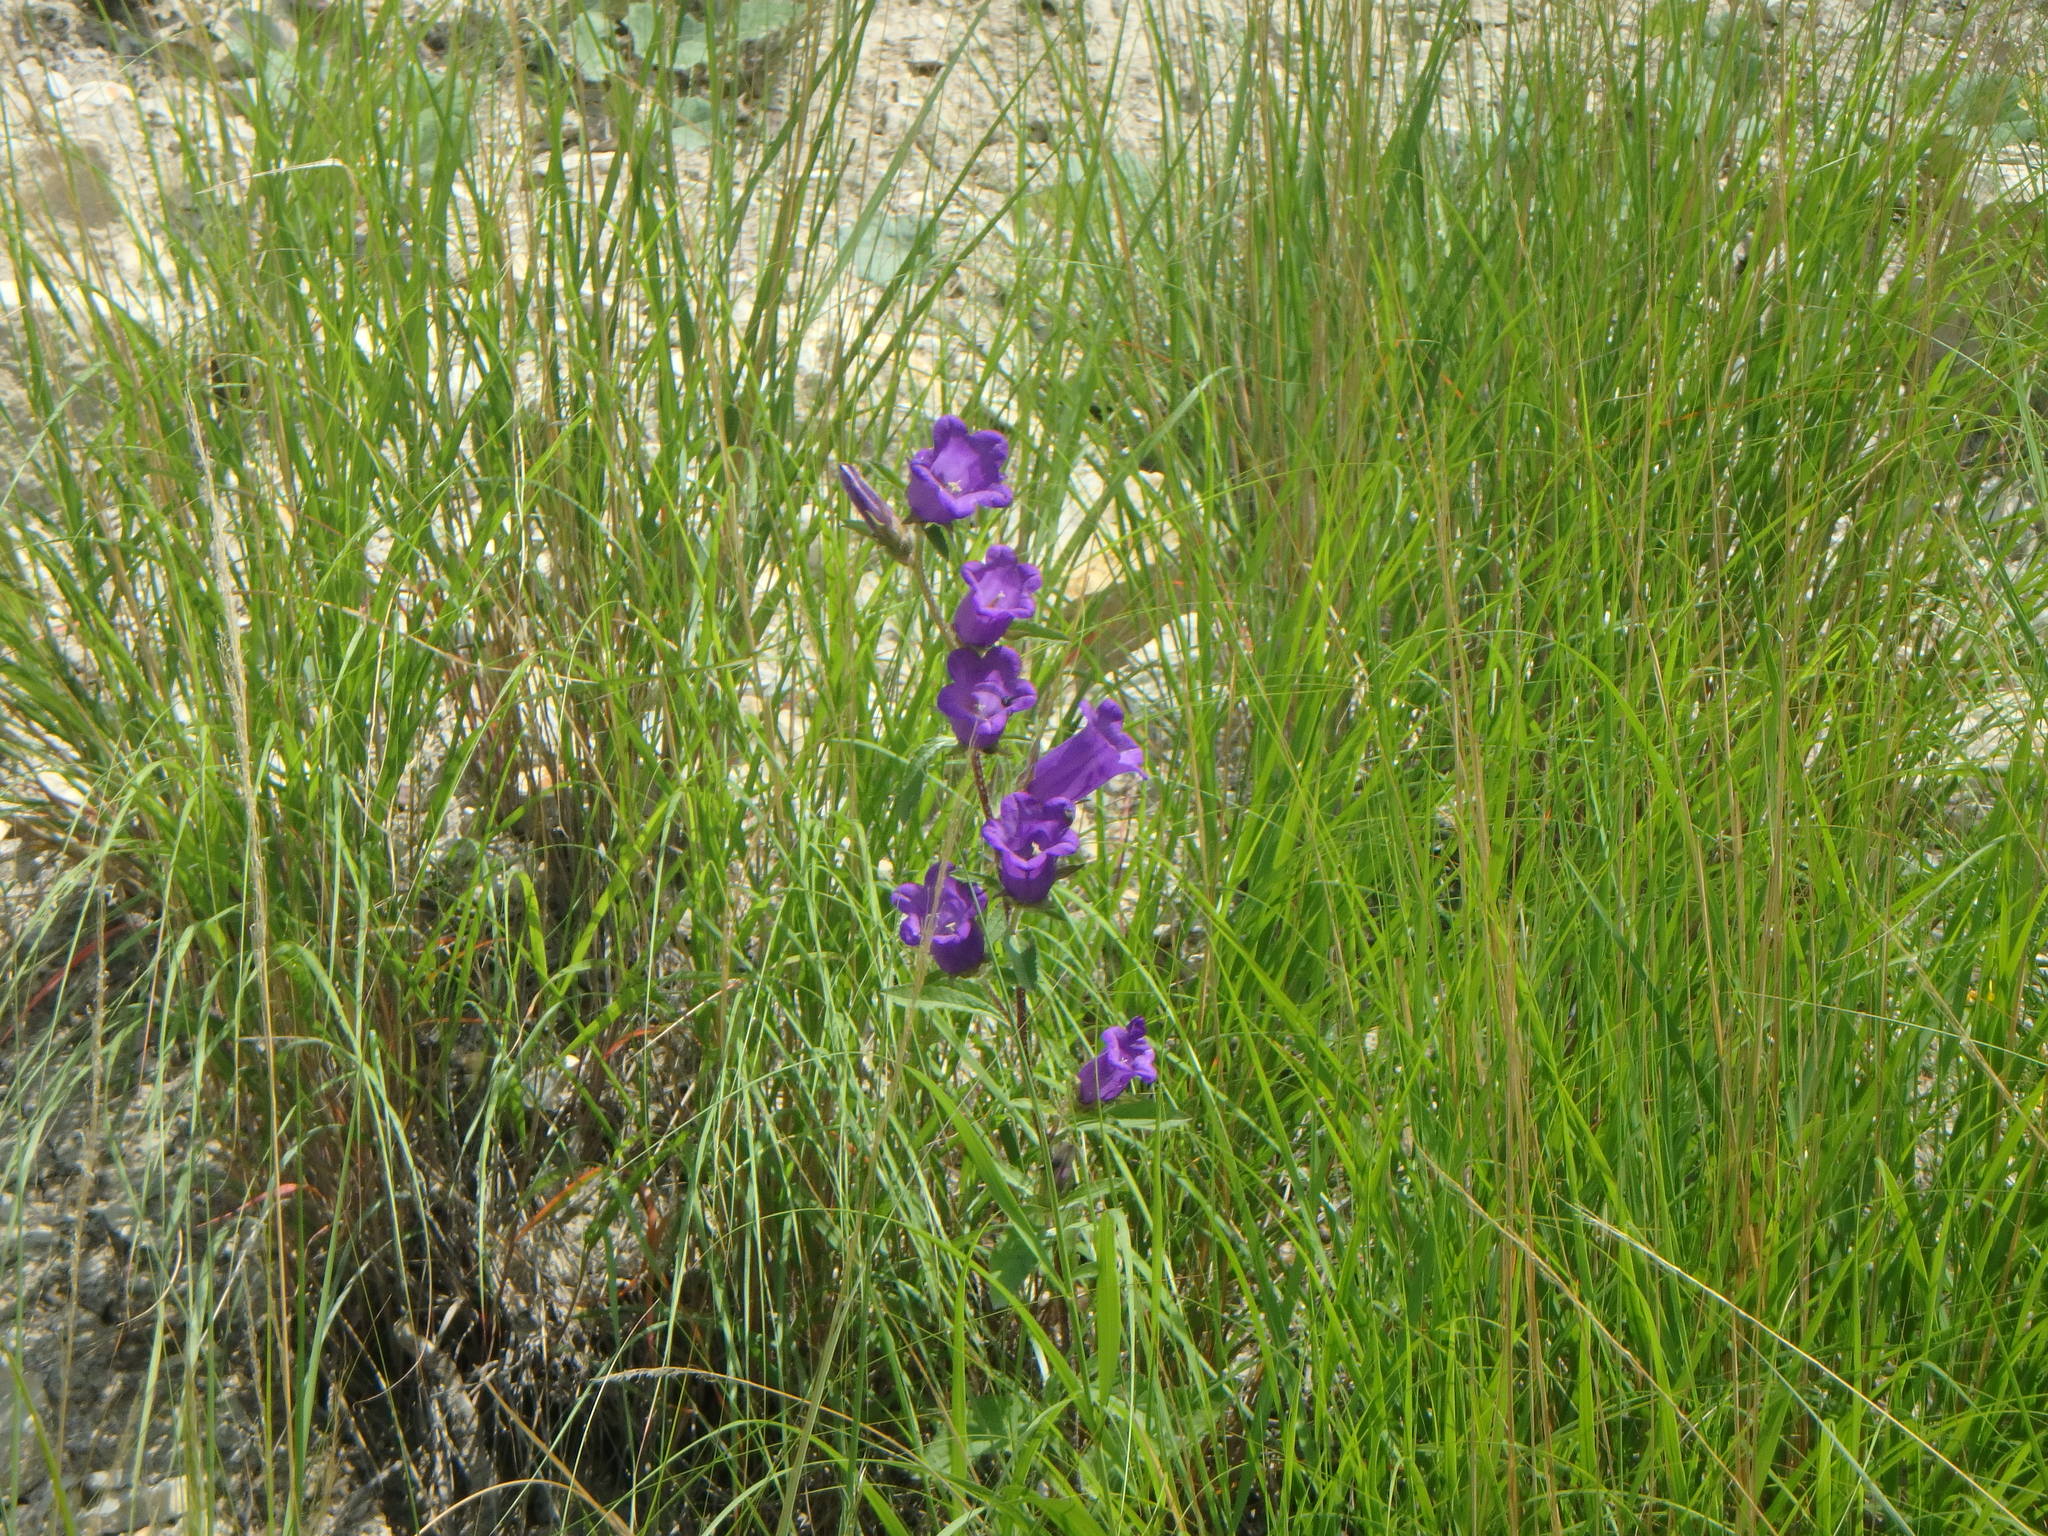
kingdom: Plantae
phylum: Tracheophyta
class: Magnoliopsida
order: Asterales
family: Campanulaceae
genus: Campanula
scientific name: Campanula medium
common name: Canterbury bells
